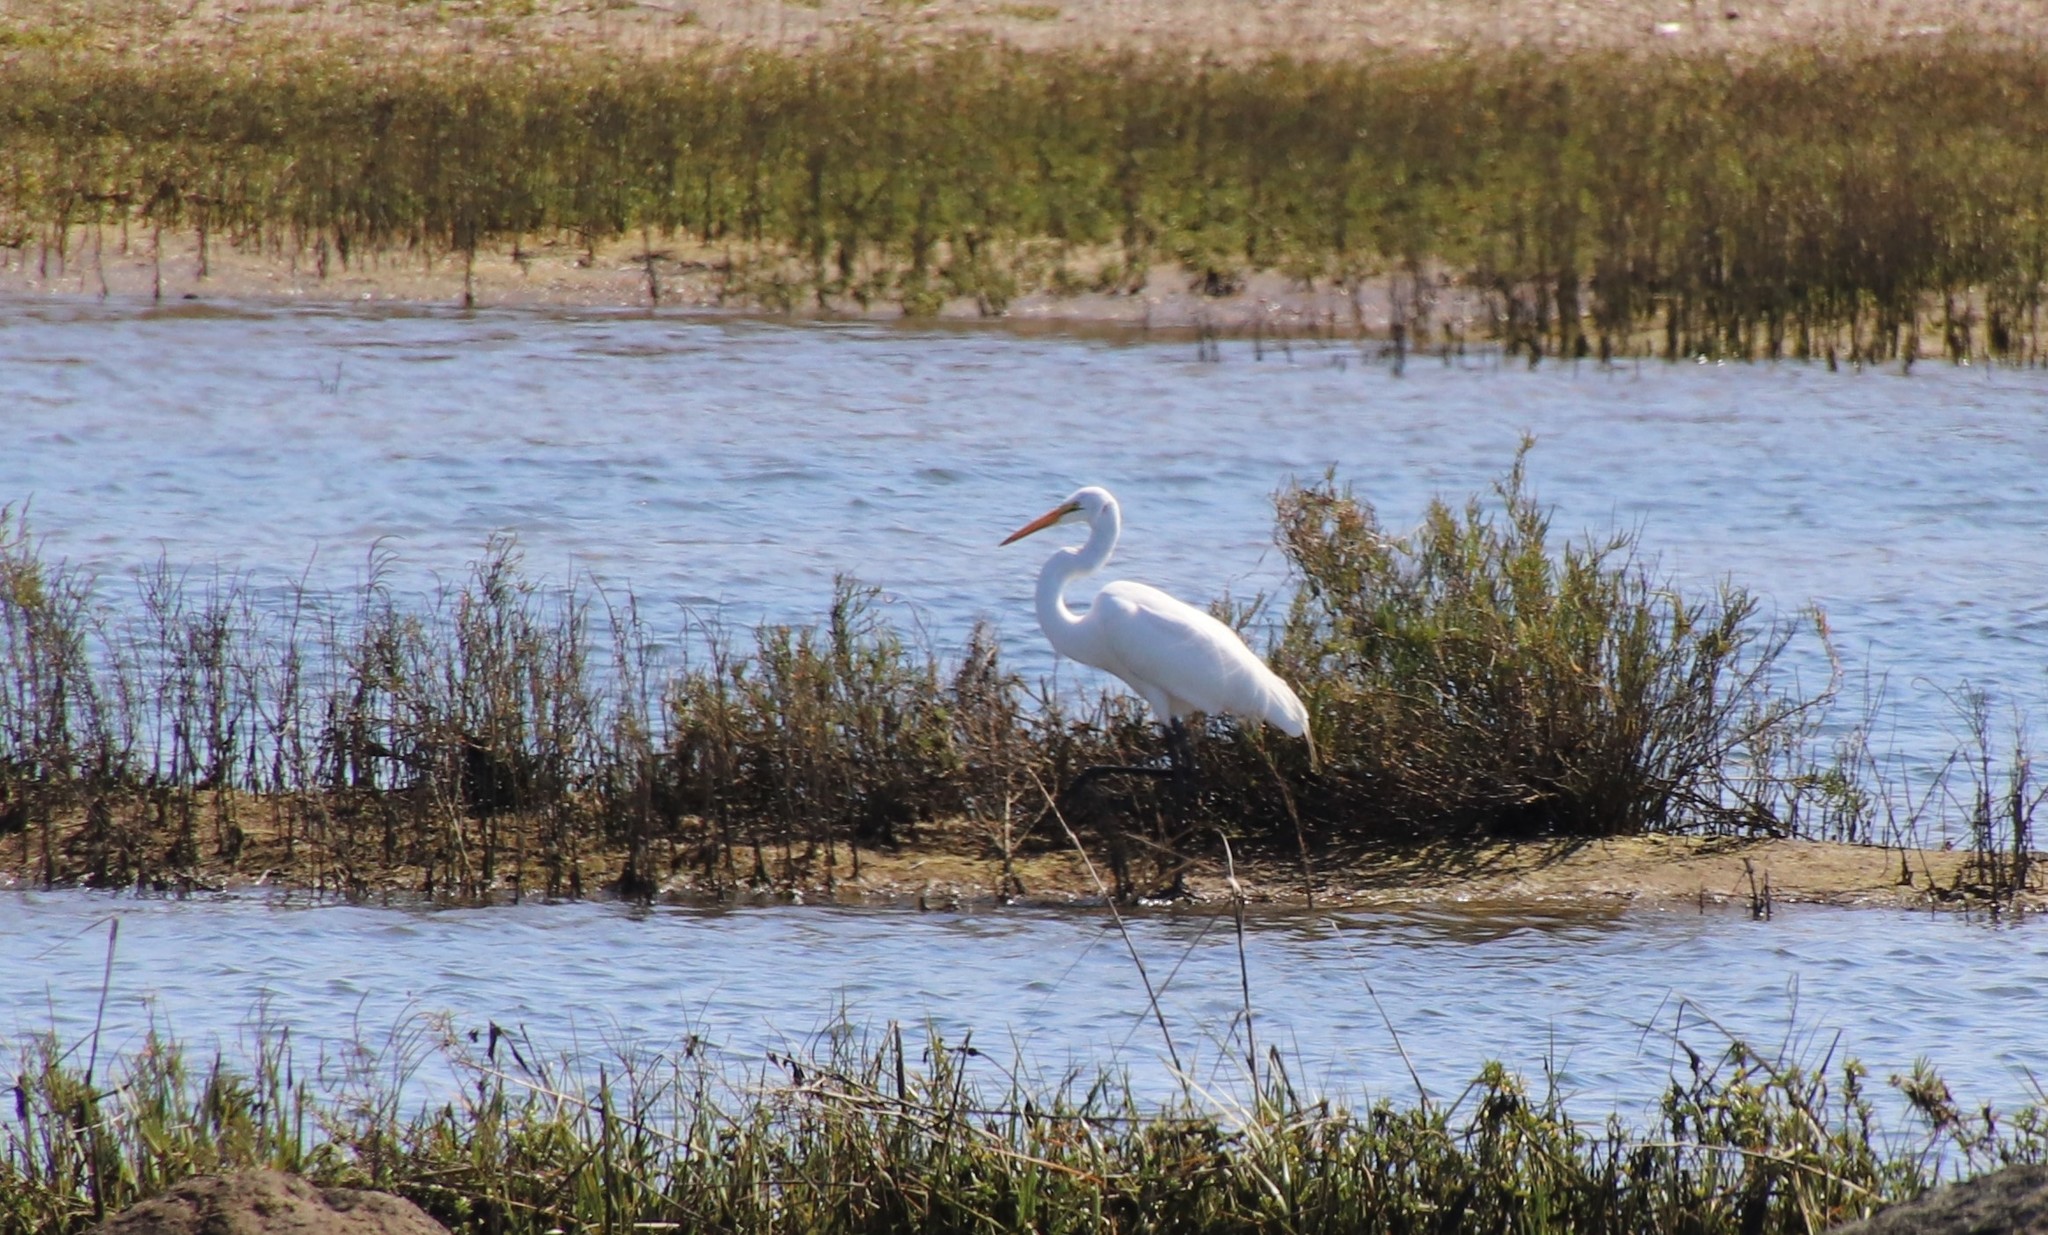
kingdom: Animalia
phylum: Chordata
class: Aves
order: Pelecaniformes
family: Ardeidae
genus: Ardea
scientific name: Ardea alba
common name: Great egret
